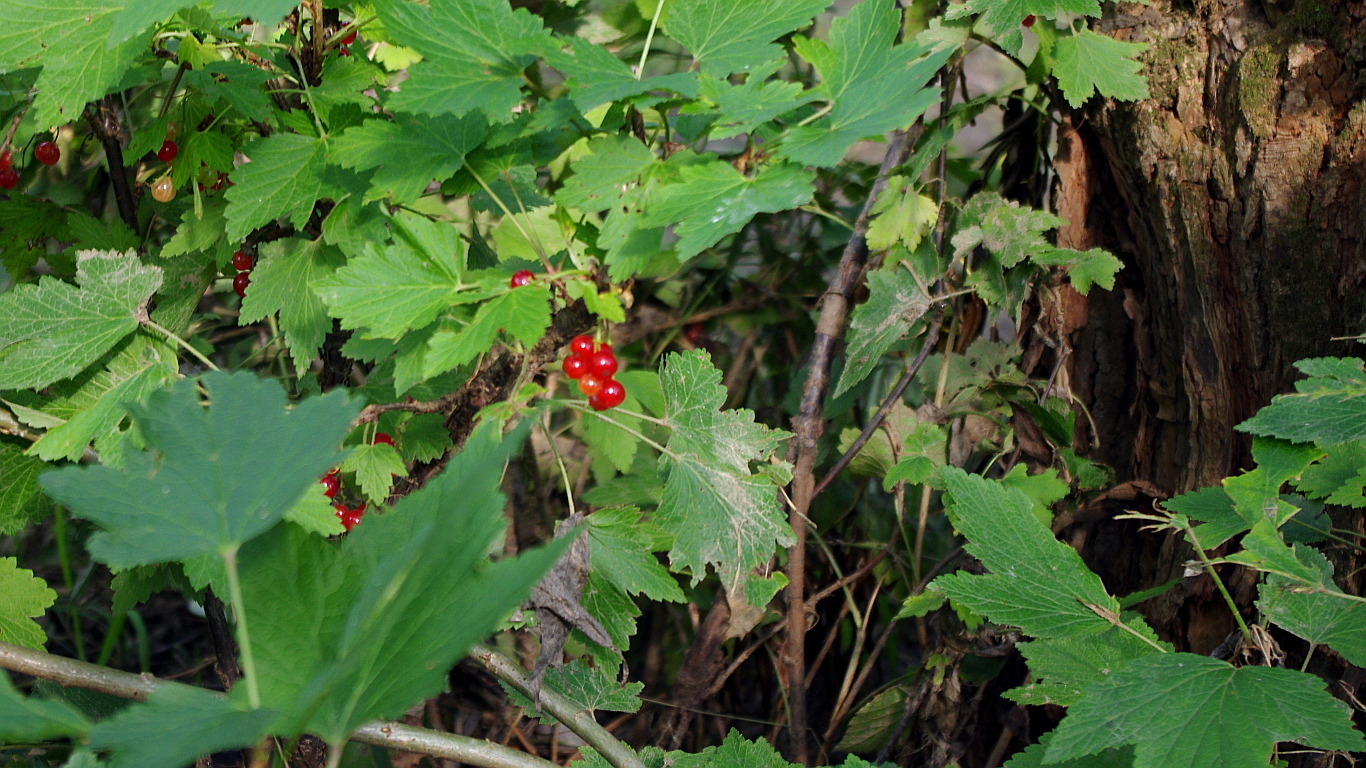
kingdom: Plantae
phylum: Tracheophyta
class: Magnoliopsida
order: Saxifragales
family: Grossulariaceae
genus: Ribes
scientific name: Ribes rubrum
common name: Red currant
